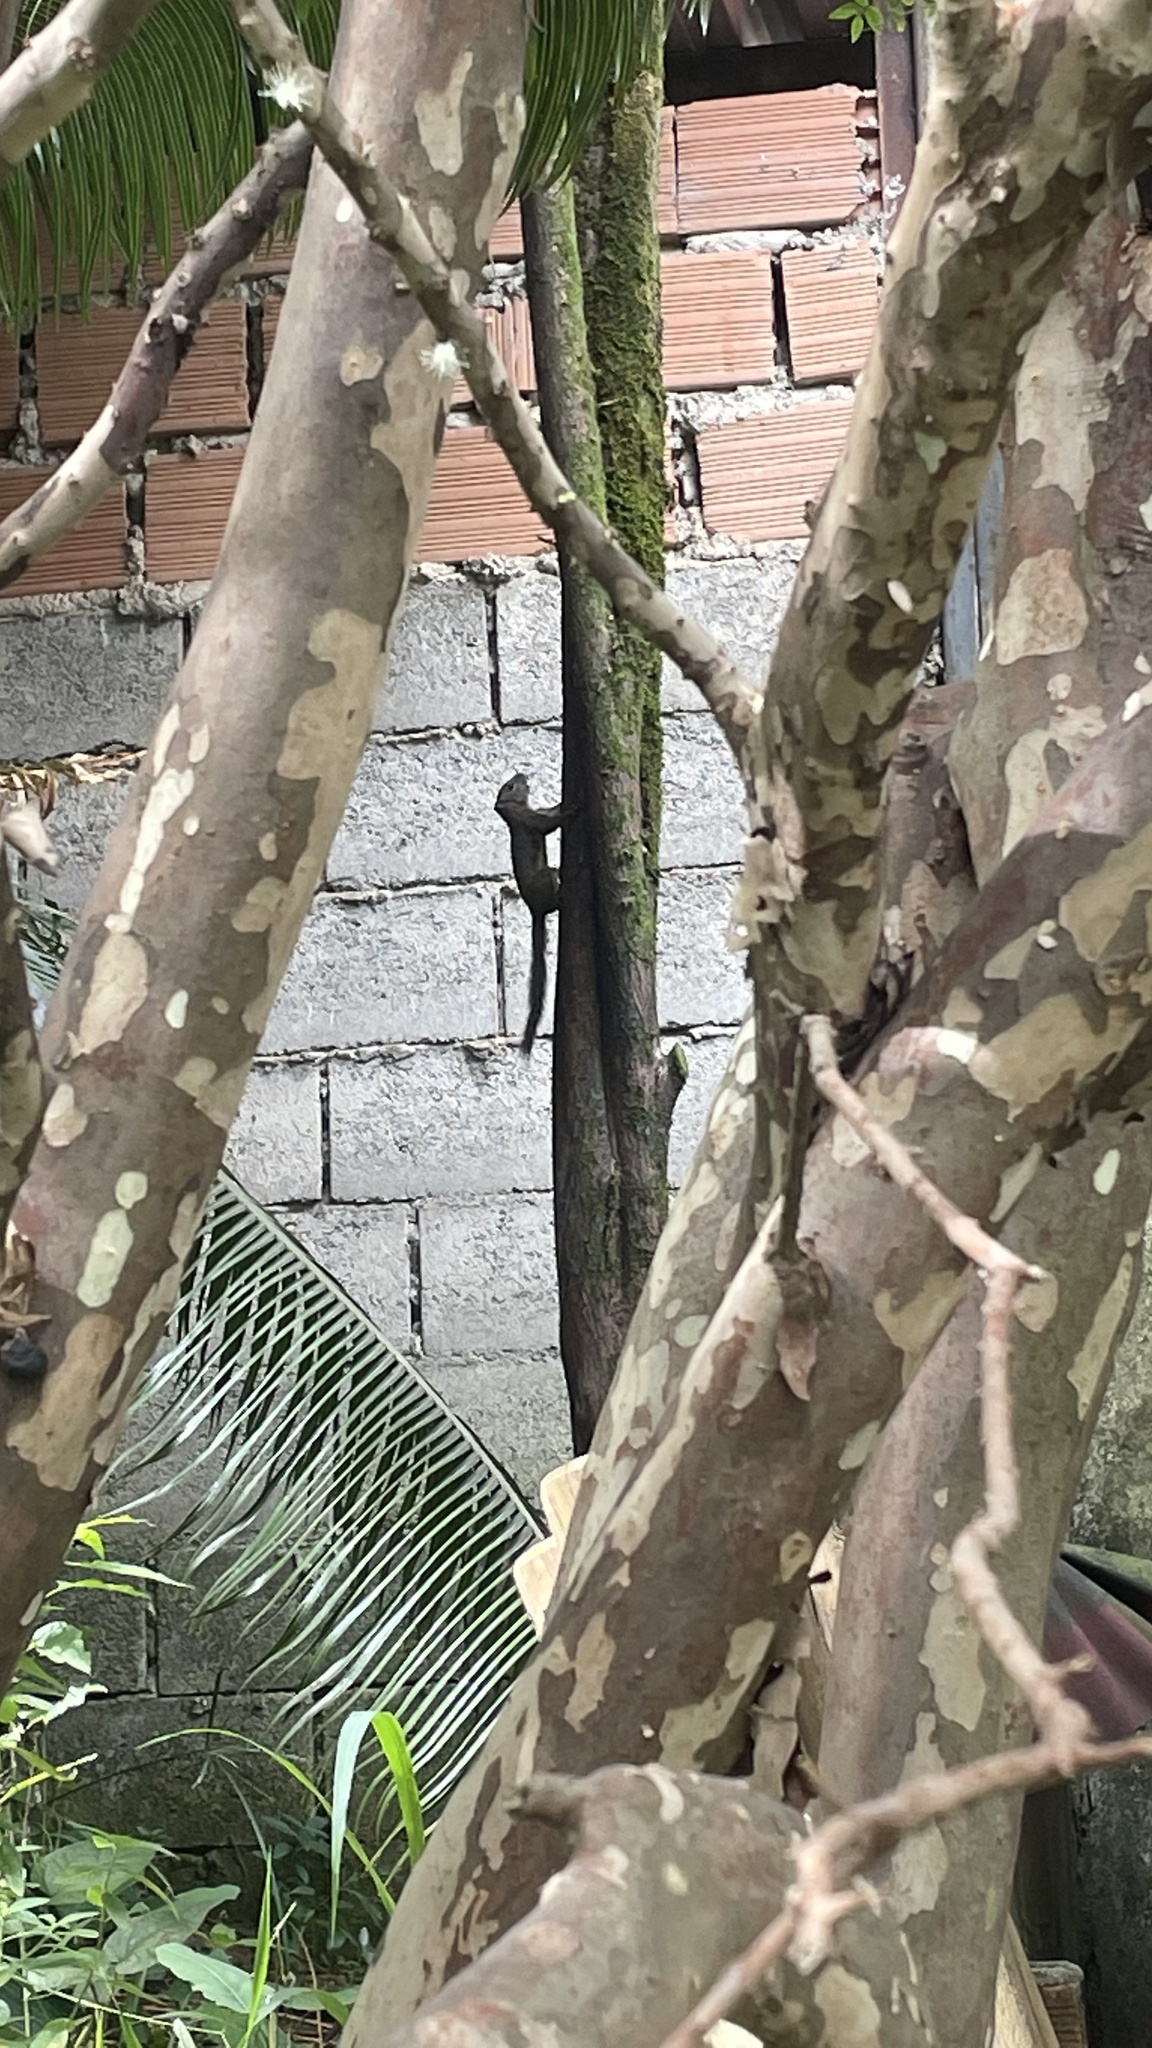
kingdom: Animalia
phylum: Chordata
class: Mammalia
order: Rodentia
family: Sciuridae
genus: Sciurus
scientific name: Sciurus aestuans
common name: Guianan squirrel
